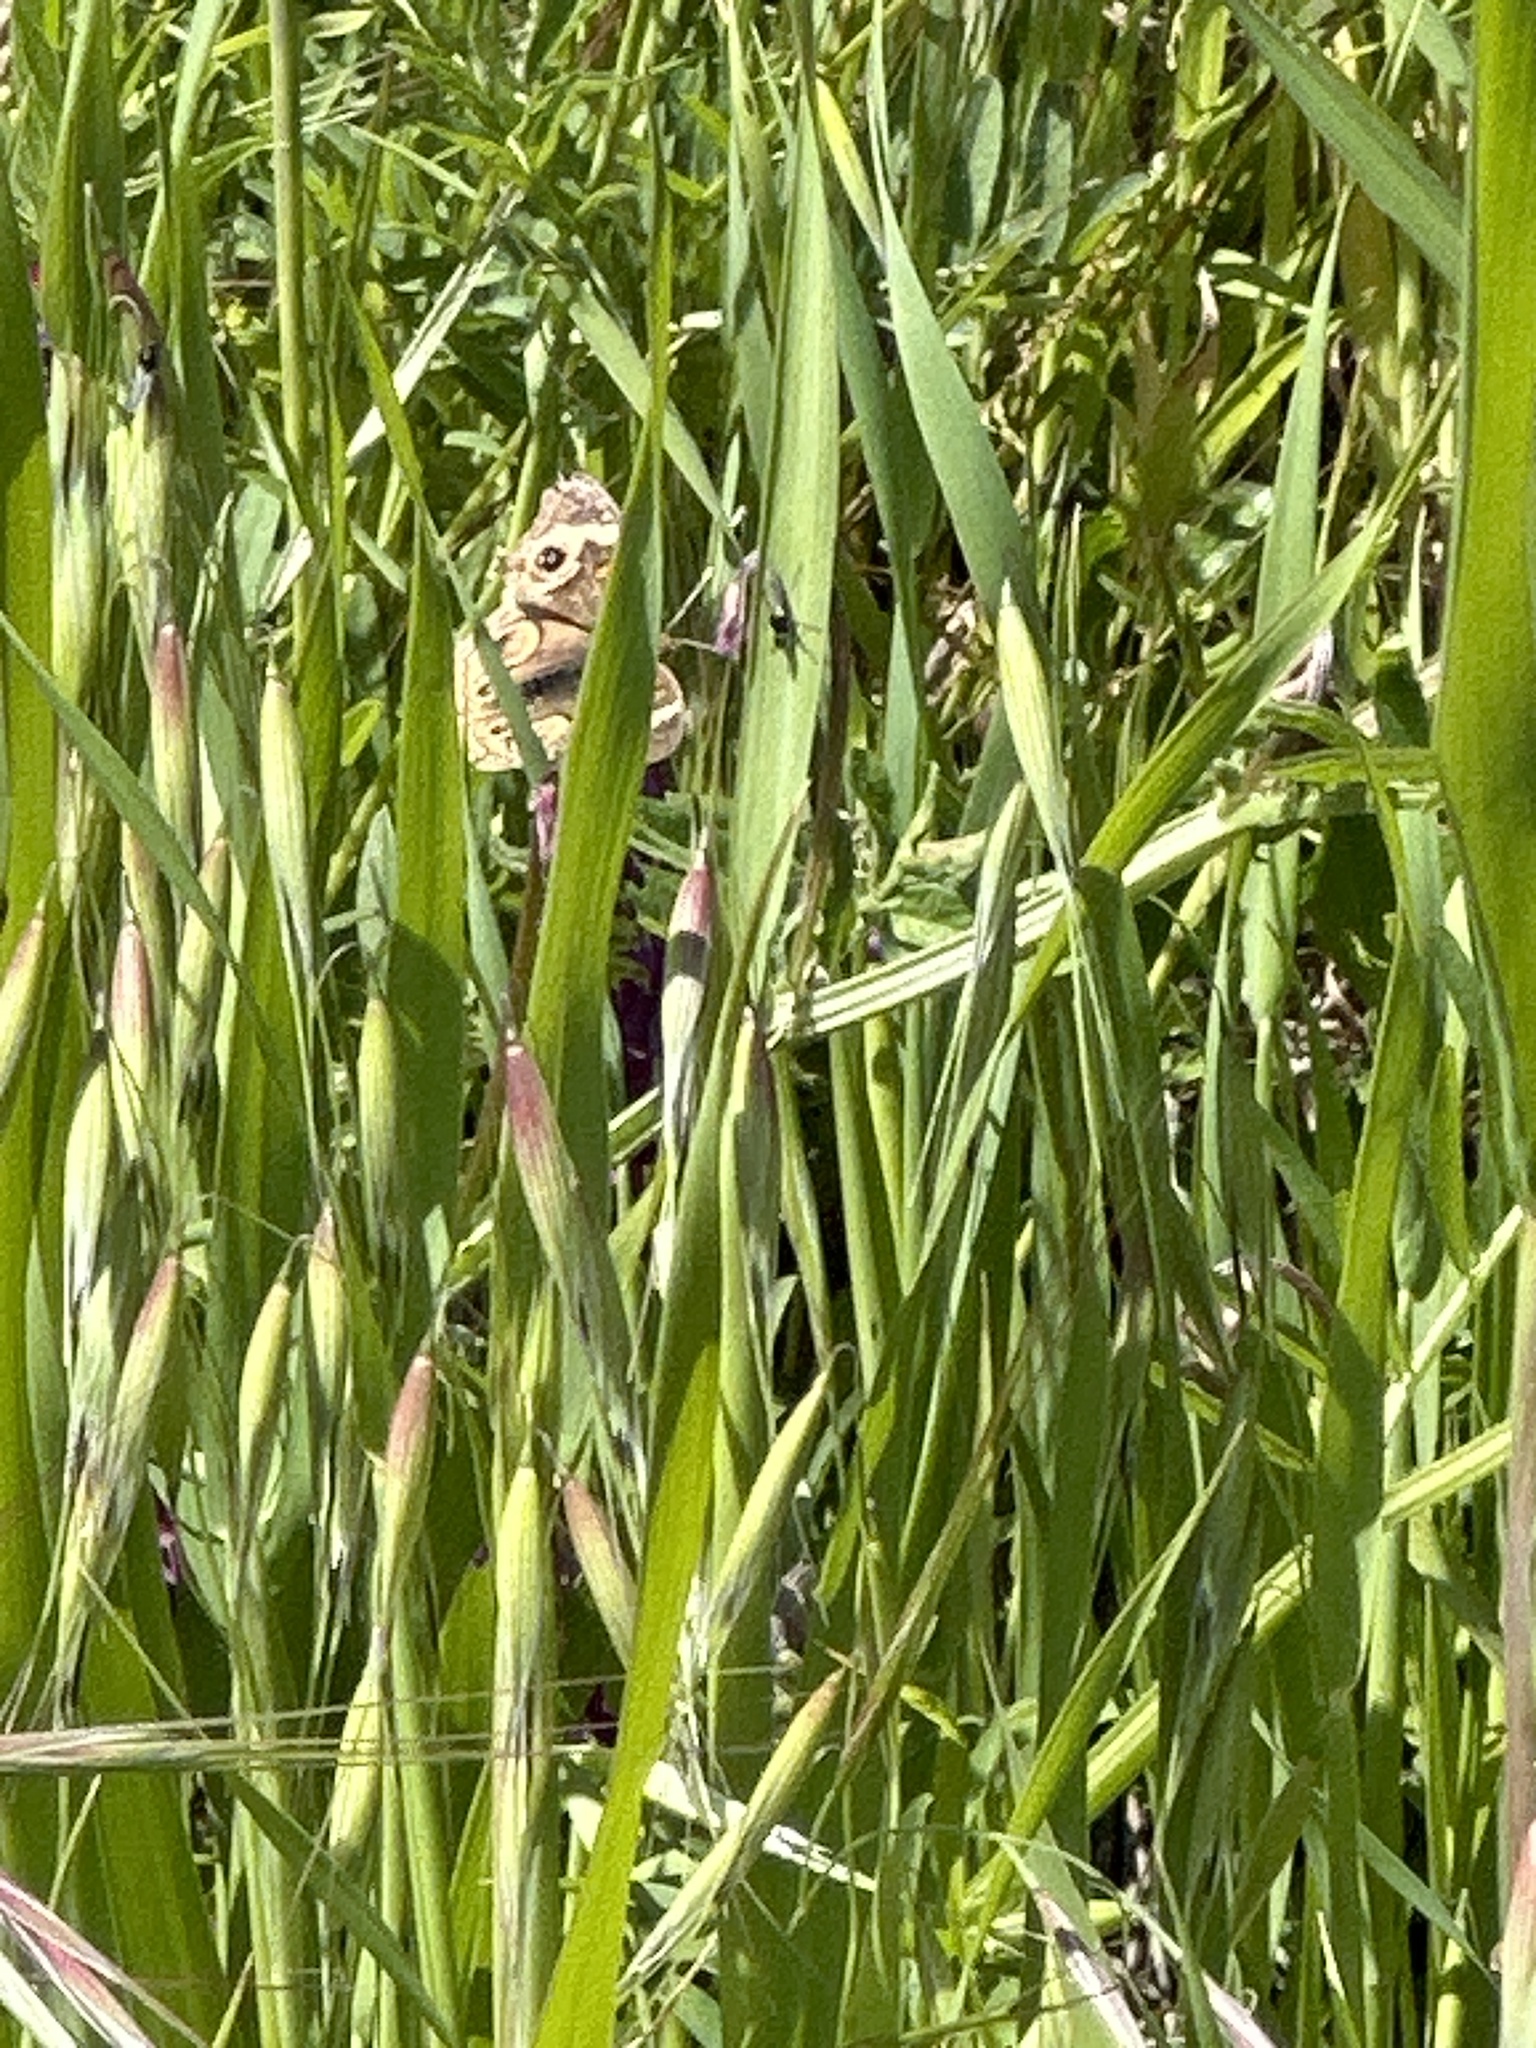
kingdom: Animalia
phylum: Arthropoda
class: Insecta
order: Lepidoptera
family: Nymphalidae
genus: Junonia
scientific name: Junonia grisea
